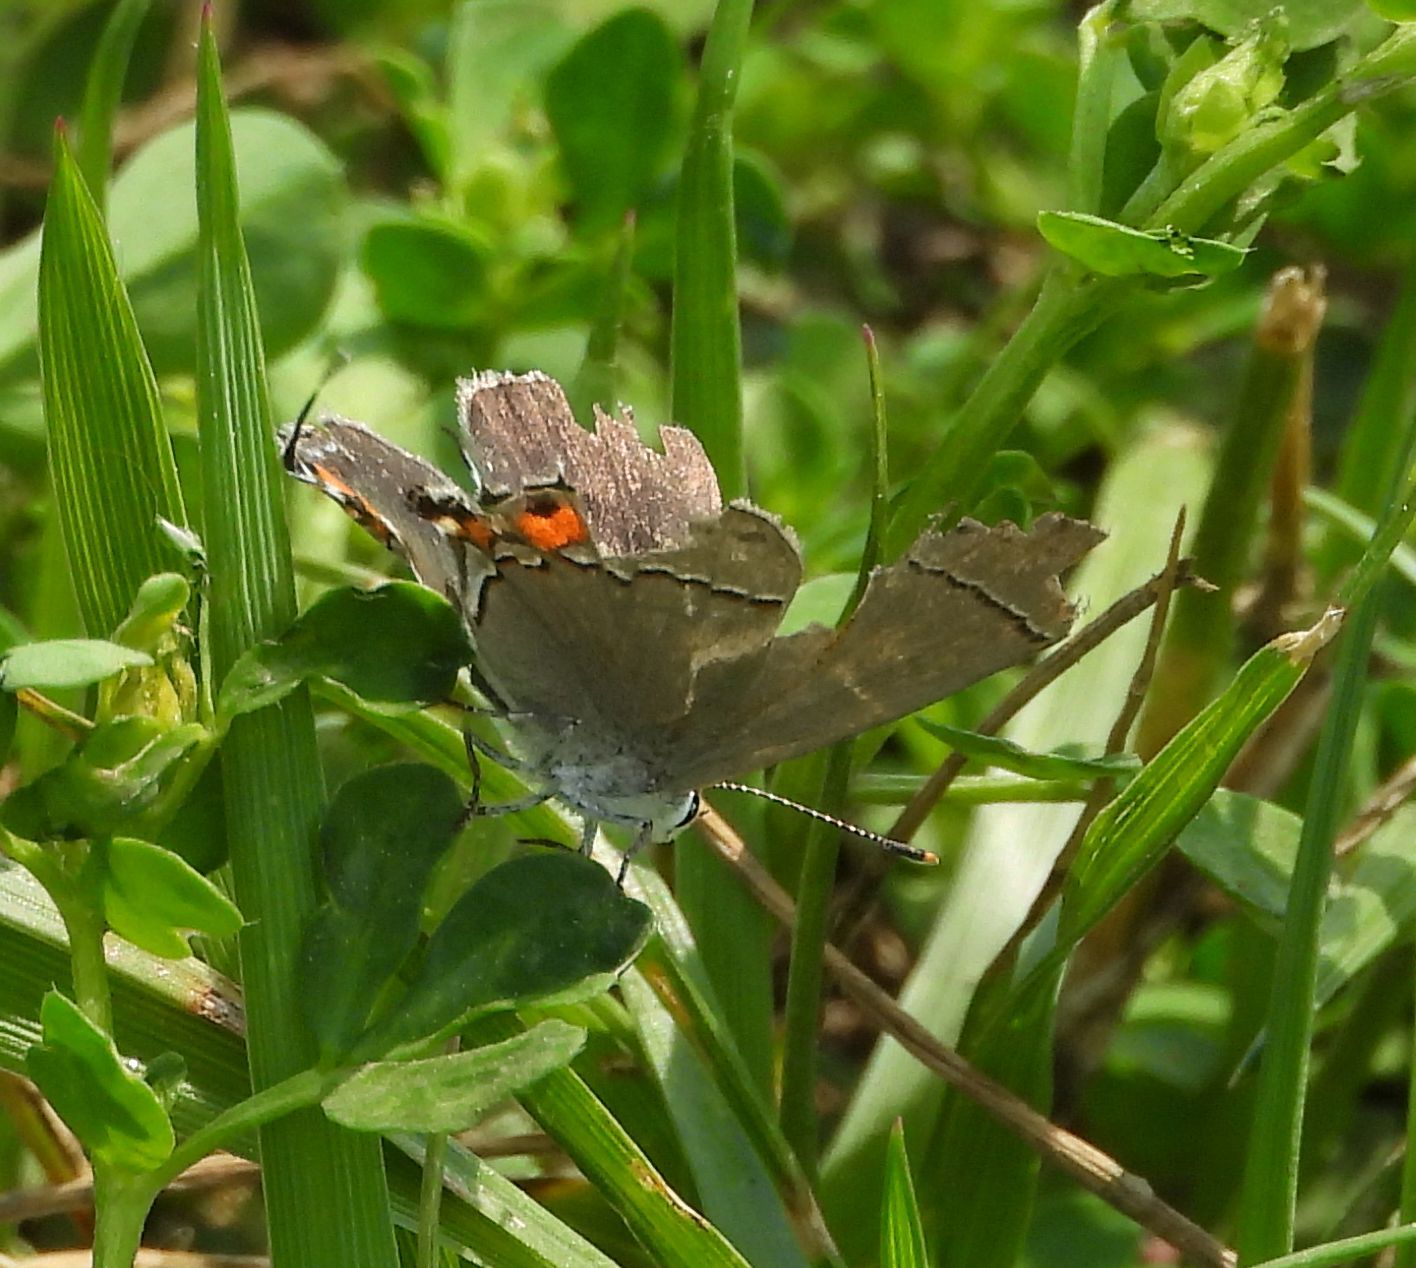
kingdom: Animalia
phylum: Arthropoda
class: Insecta
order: Lepidoptera
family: Lycaenidae
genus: Strymon
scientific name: Strymon melinus
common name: Gray hairstreak
